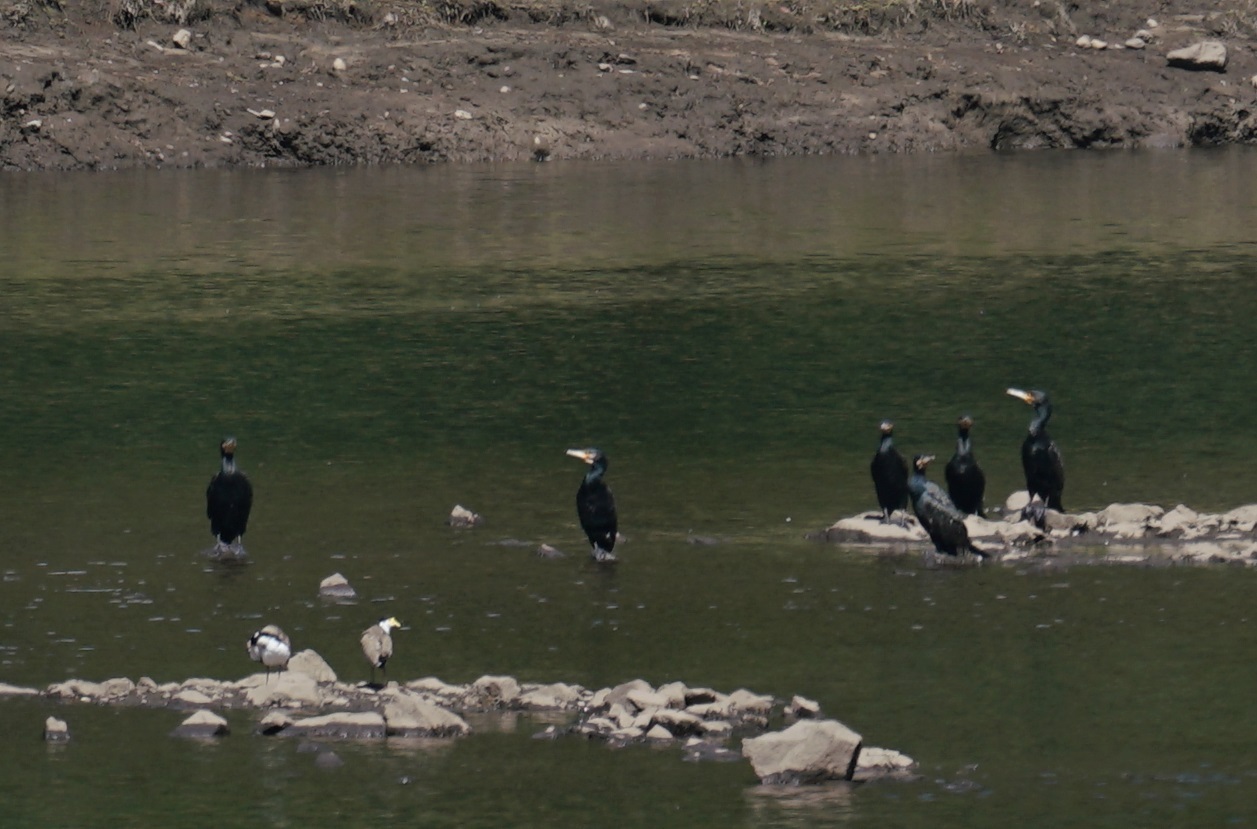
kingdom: Animalia
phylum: Chordata
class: Aves
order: Suliformes
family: Phalacrocoracidae
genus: Phalacrocorax
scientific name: Phalacrocorax carbo
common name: Great cormorant
